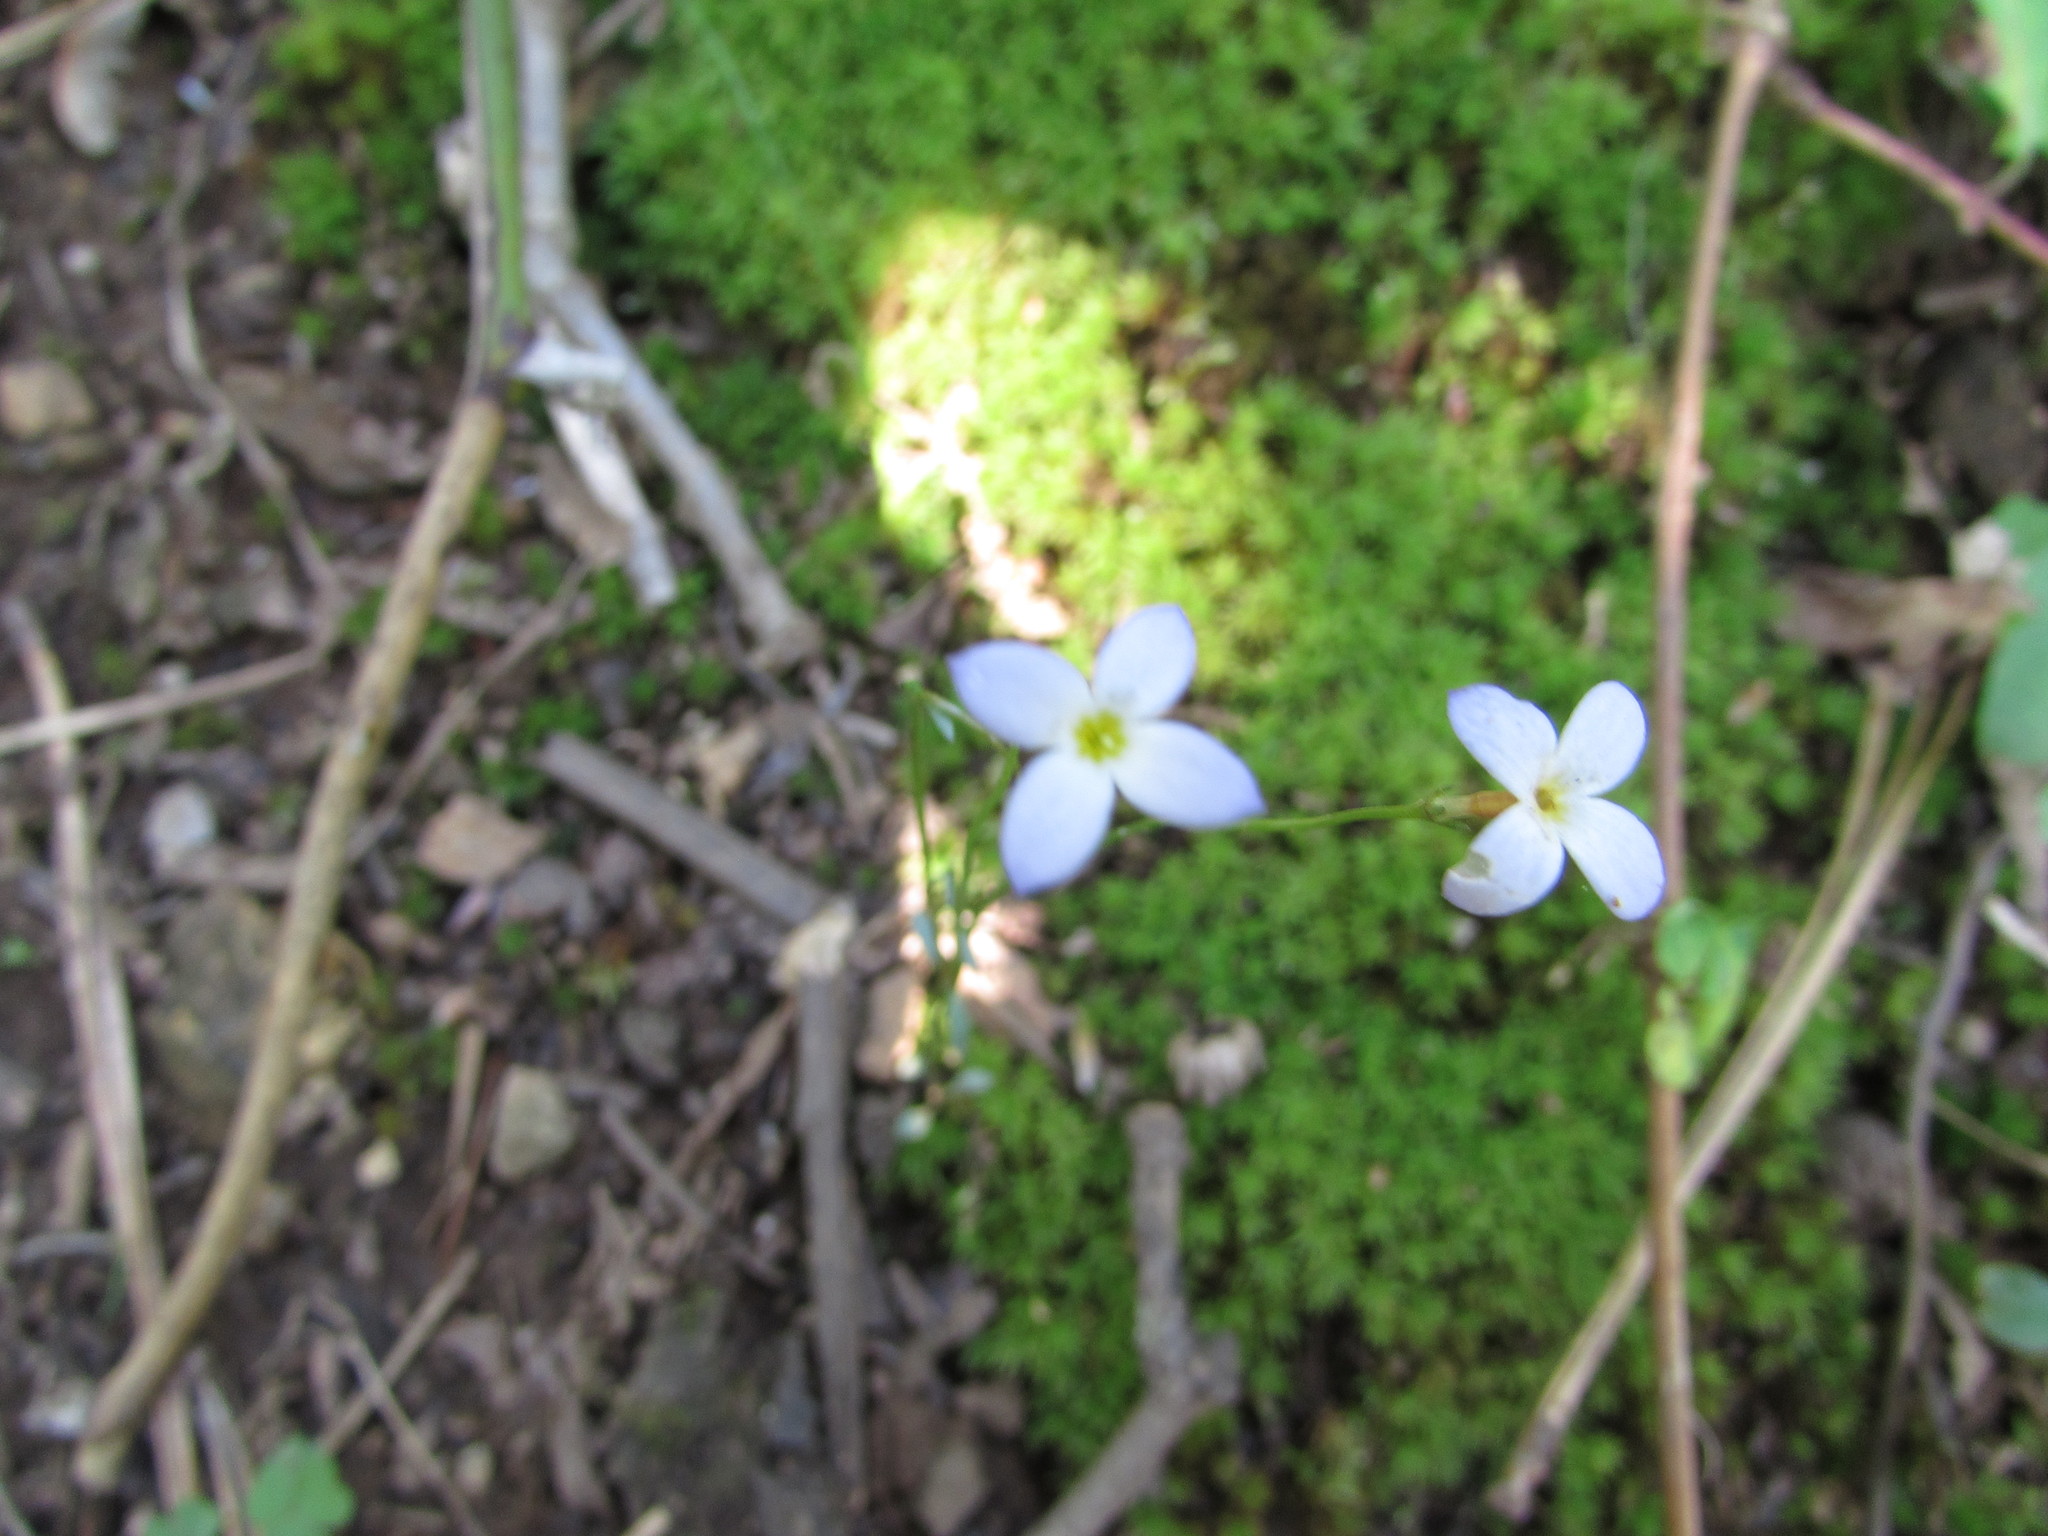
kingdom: Plantae
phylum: Tracheophyta
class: Magnoliopsida
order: Gentianales
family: Rubiaceae
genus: Houstonia
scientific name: Houstonia caerulea
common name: Bluets
